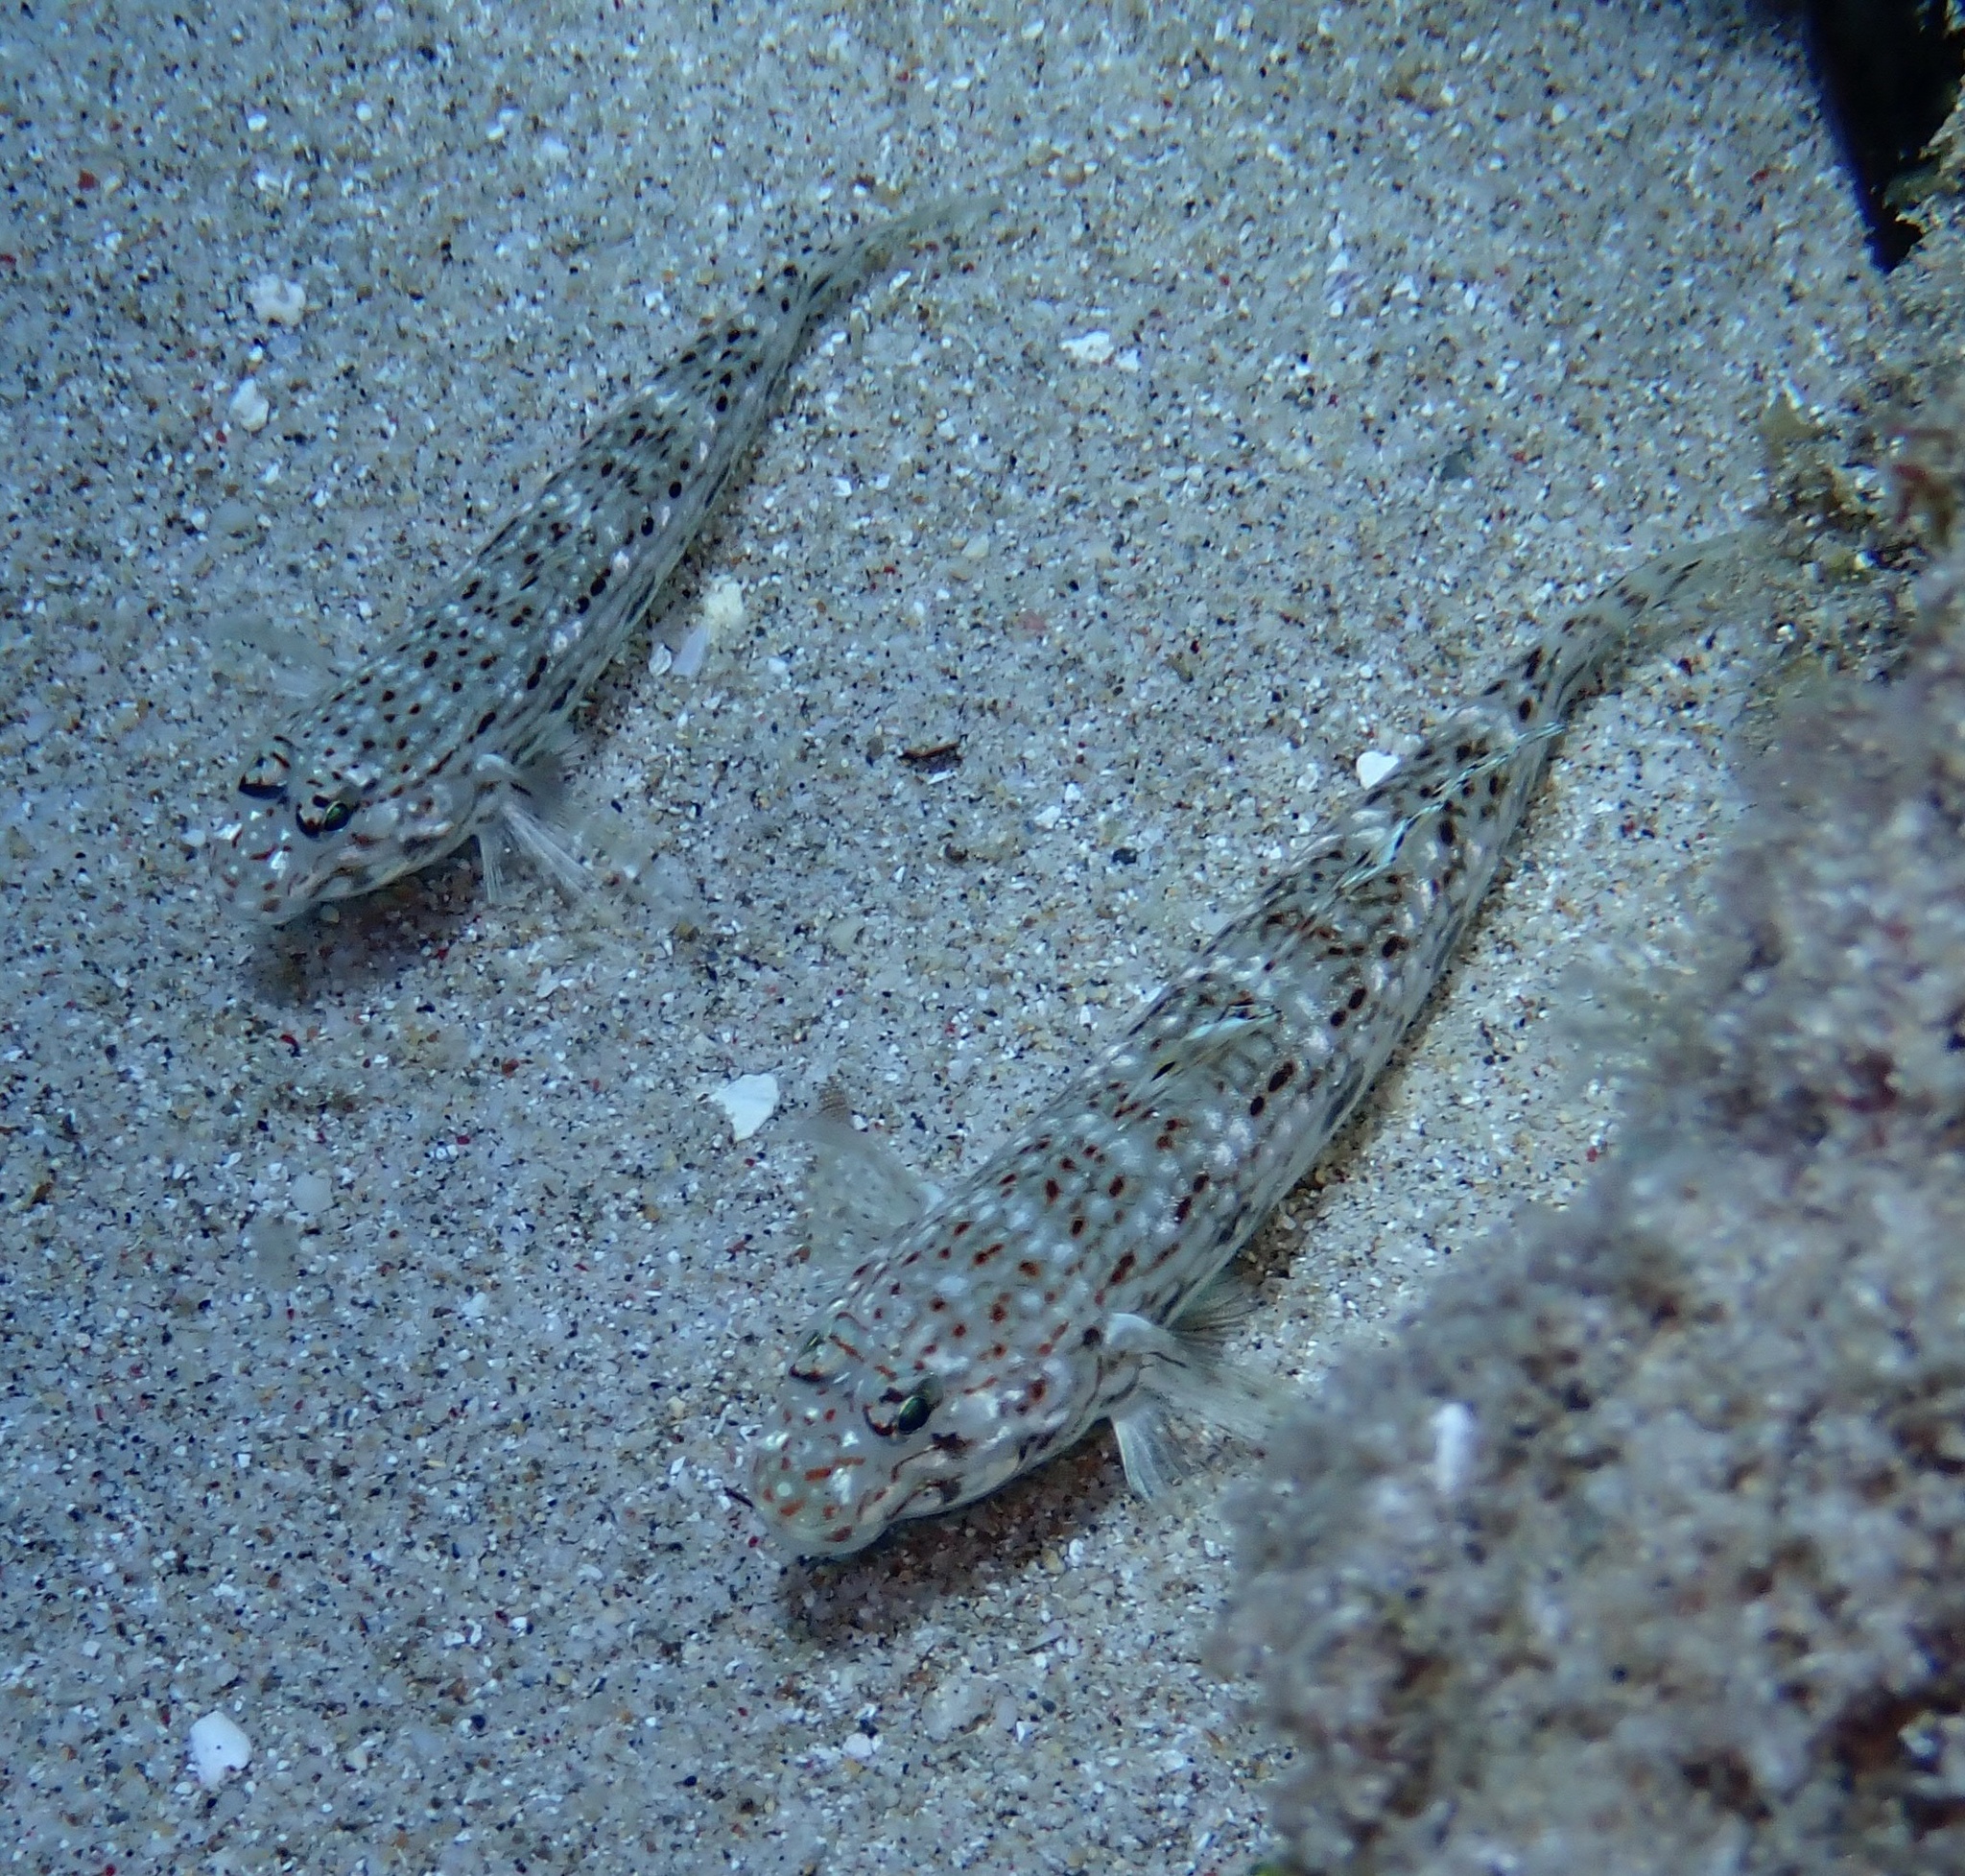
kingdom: Animalia
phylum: Chordata
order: Perciformes
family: Gobiidae
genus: Istigobius
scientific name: Istigobius decoratus
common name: Decorated goby
